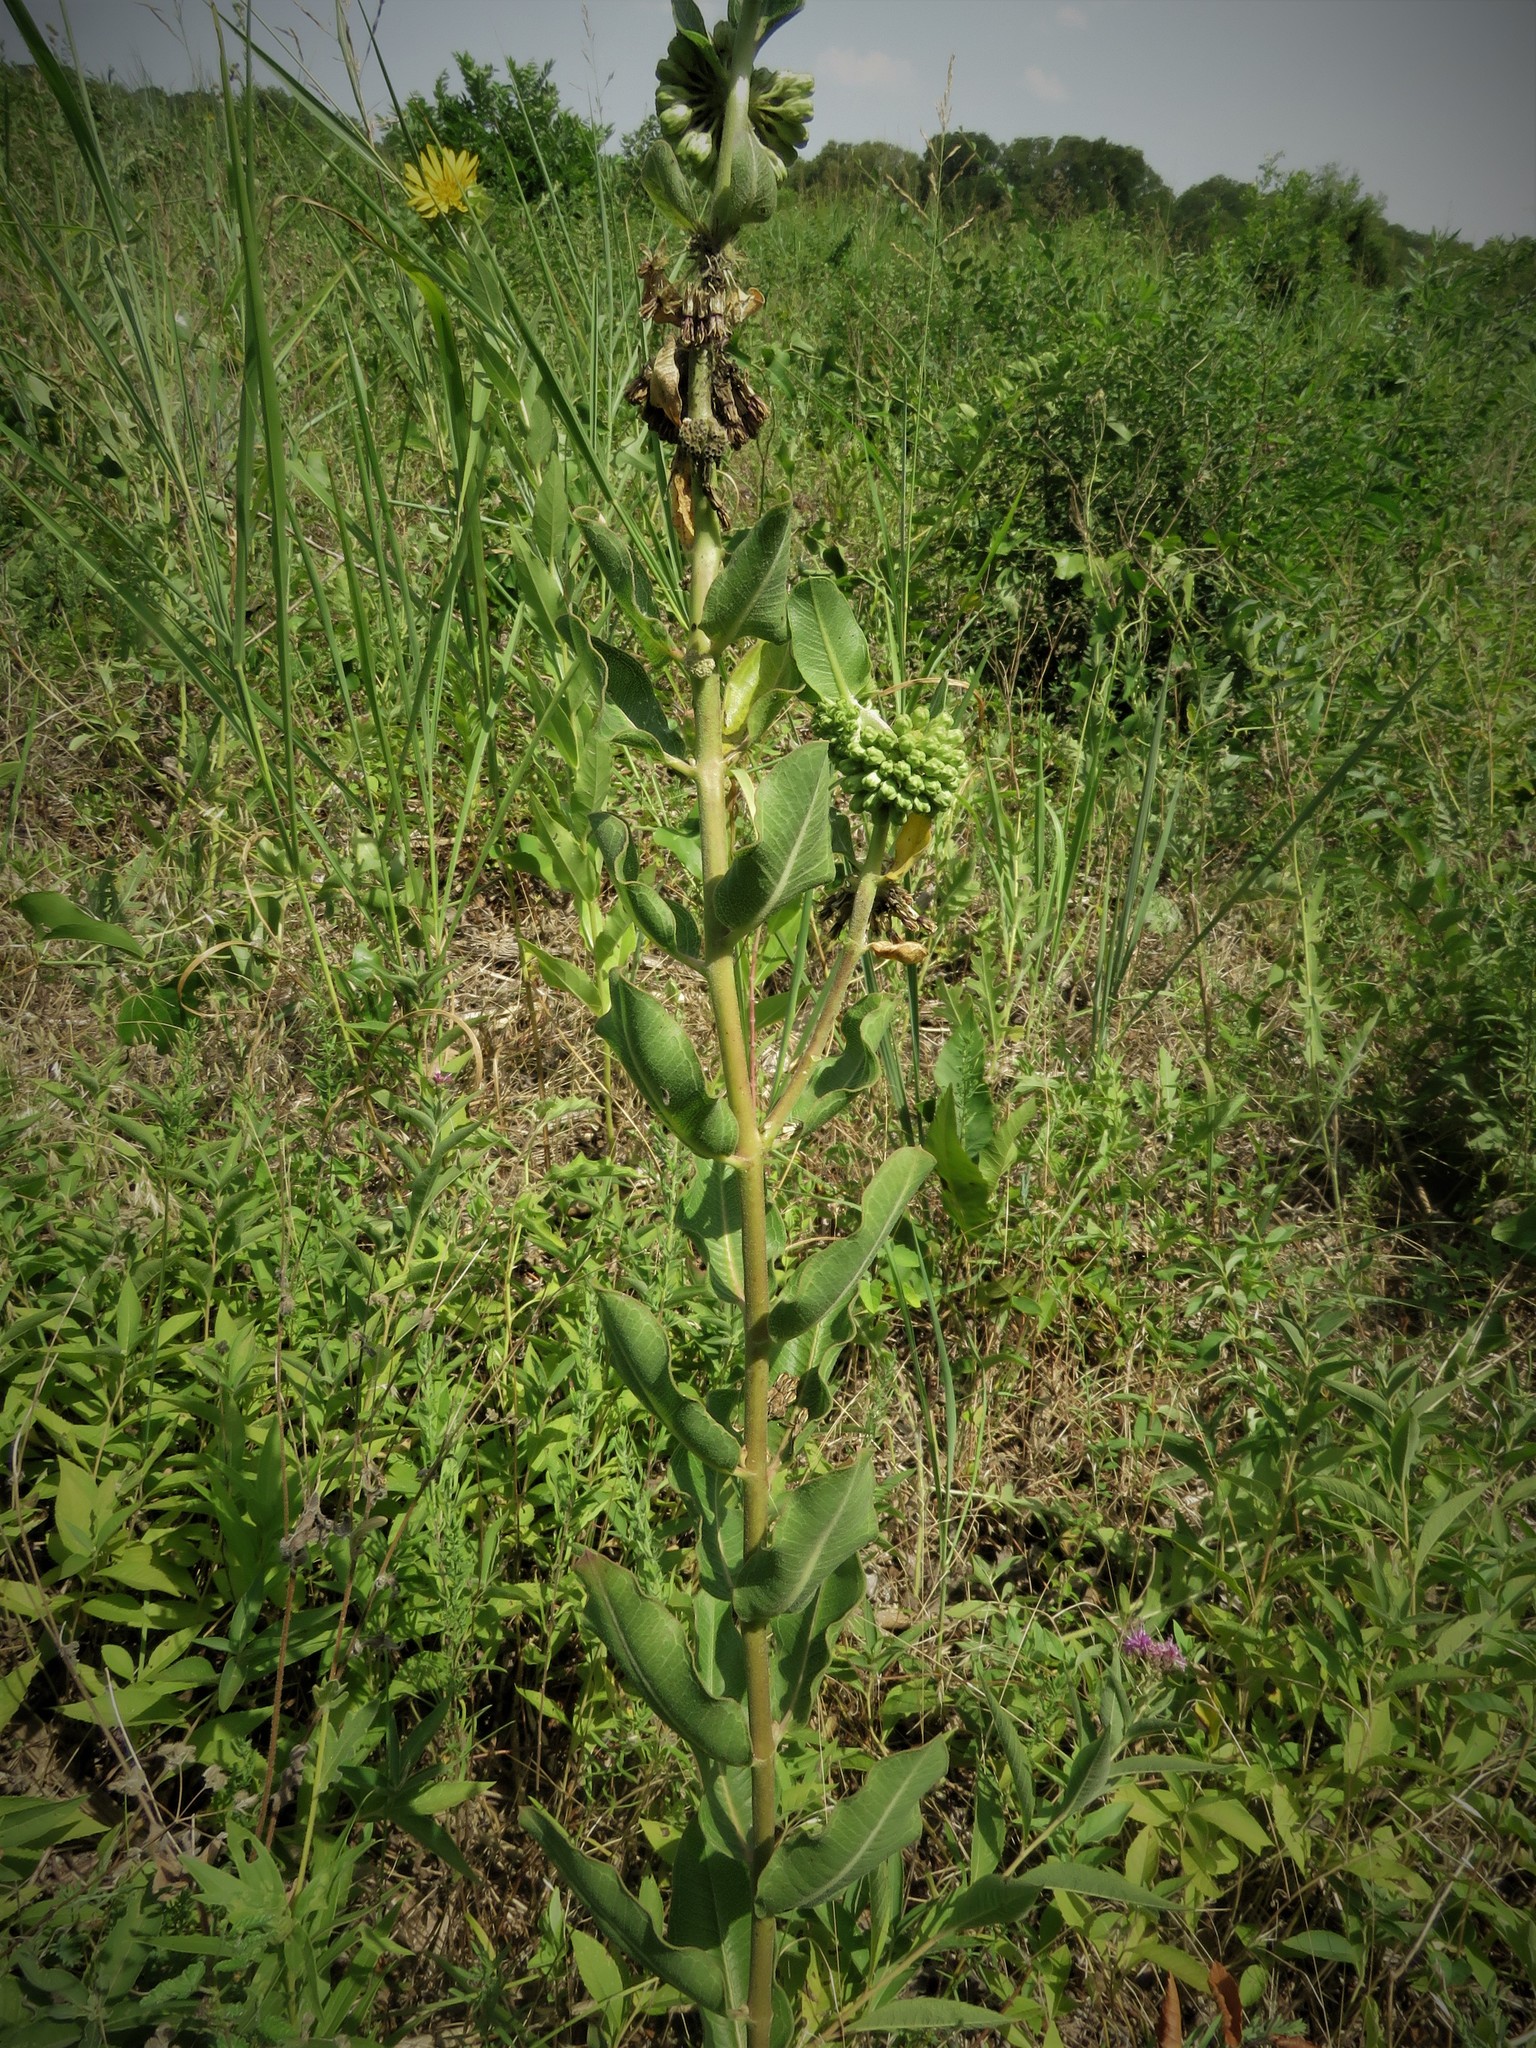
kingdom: Plantae
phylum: Tracheophyta
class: Magnoliopsida
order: Gentianales
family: Apocynaceae
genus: Asclepias
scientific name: Asclepias viridiflora
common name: Green comet milkweed
